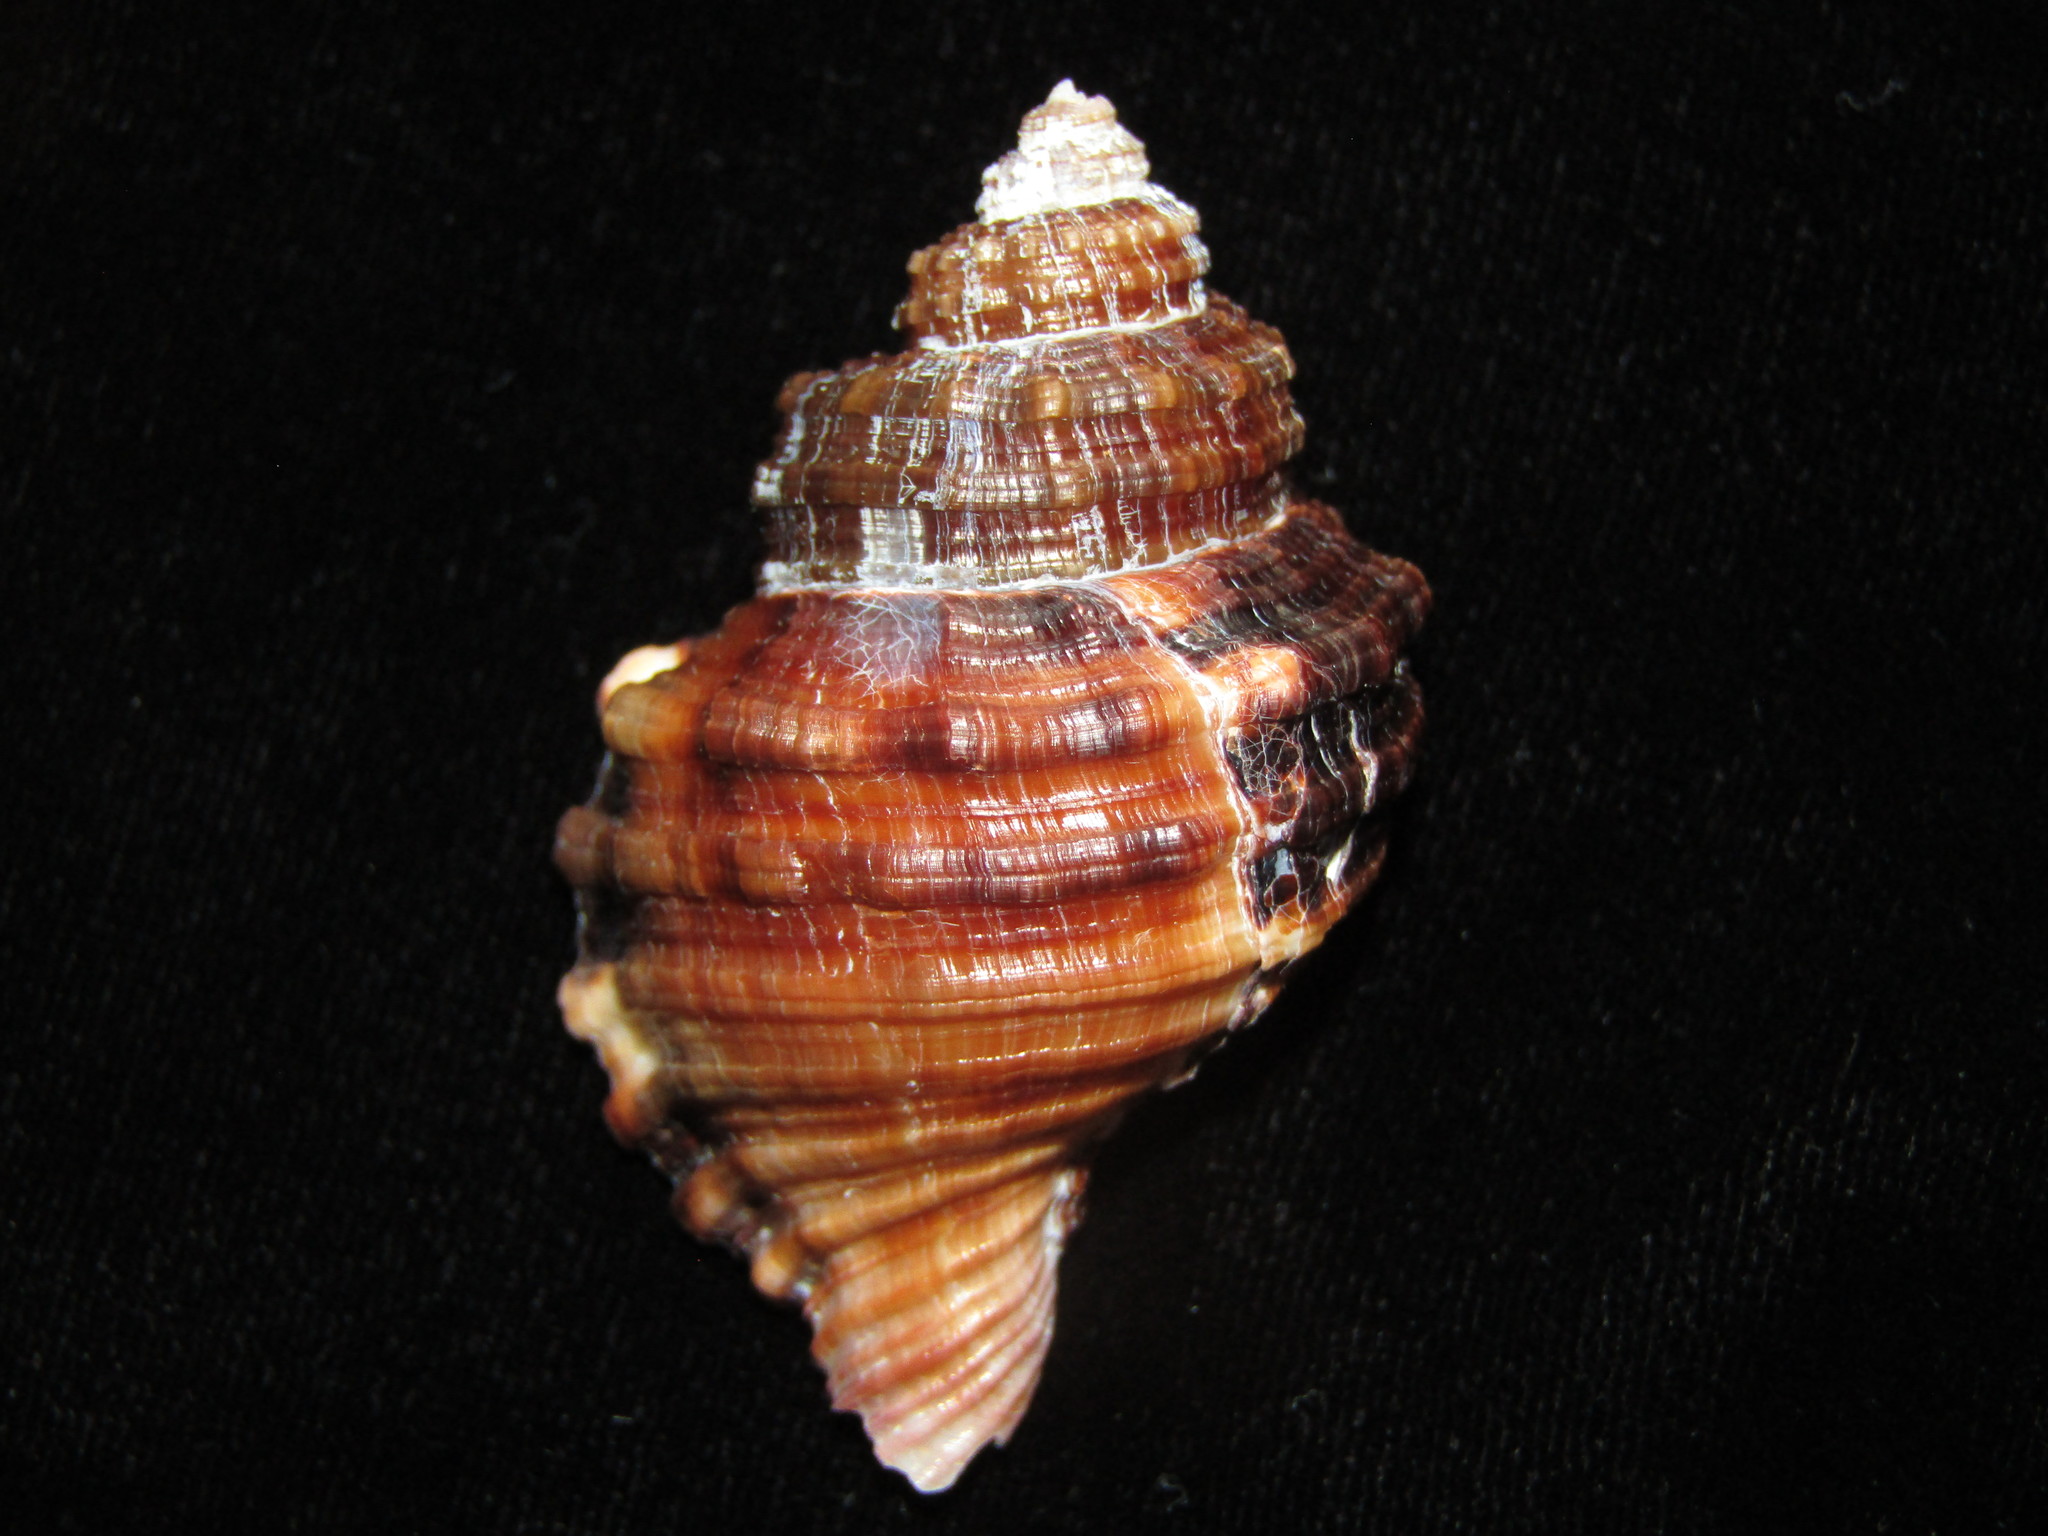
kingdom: Animalia
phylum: Mollusca
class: Gastropoda
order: Littorinimorpha
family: Cymatiidae
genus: Monoplex
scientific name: Monoplex parthenopeus
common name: Giant triton
